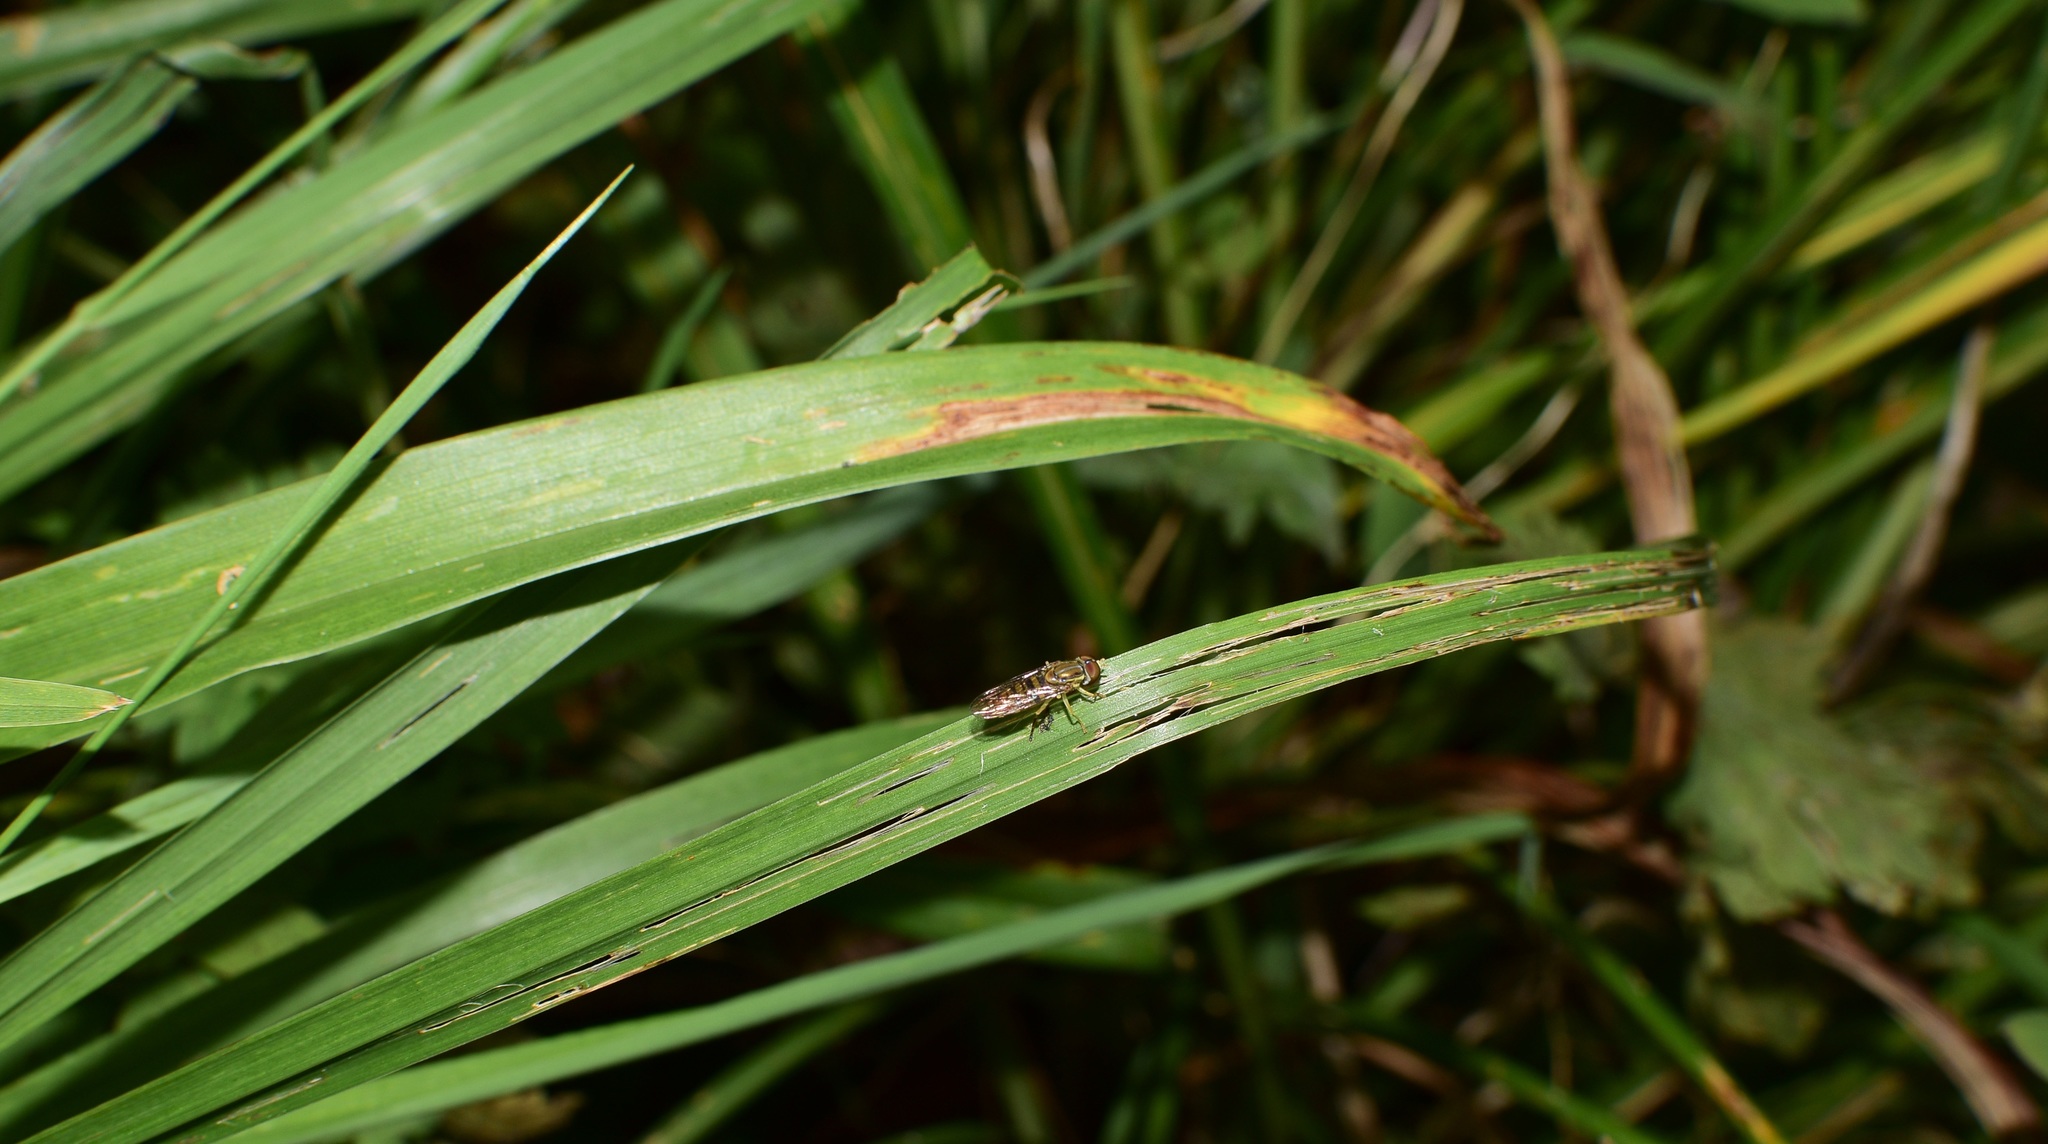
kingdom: Animalia
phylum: Arthropoda
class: Insecta
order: Diptera
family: Syrphidae
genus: Toxomerus
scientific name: Toxomerus politus
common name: Maize calligrapher
